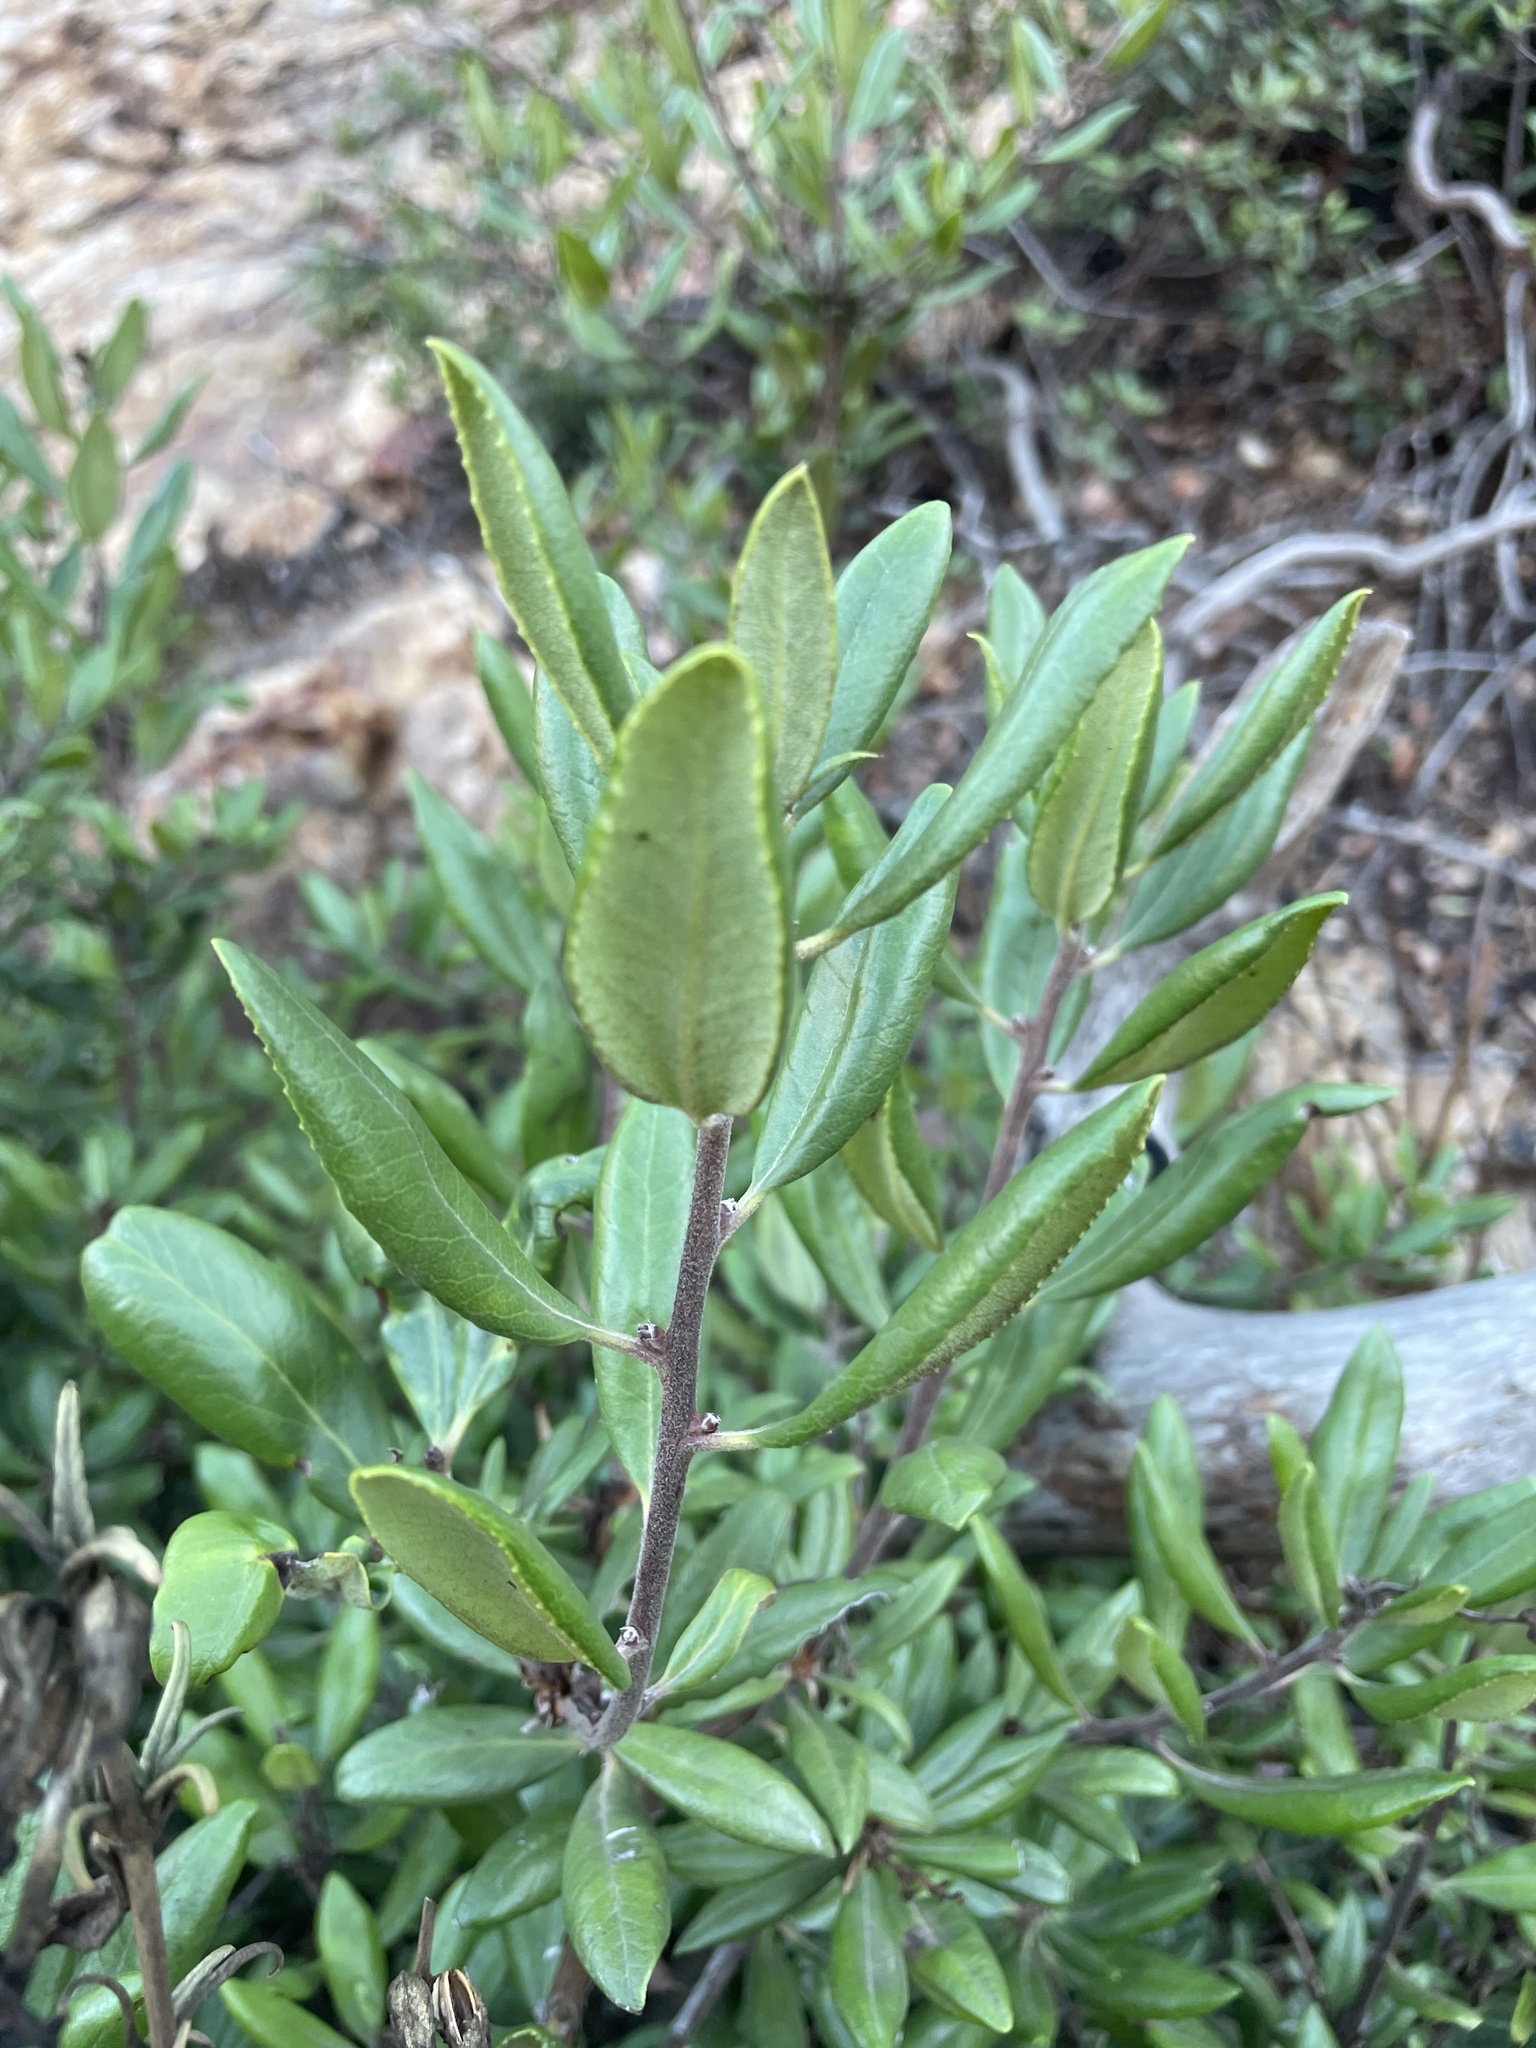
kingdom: Plantae
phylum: Tracheophyta
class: Magnoliopsida
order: Ericales
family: Ericaceae
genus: Comarostaphylis
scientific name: Comarostaphylis diversifolia
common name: Summer-holly
